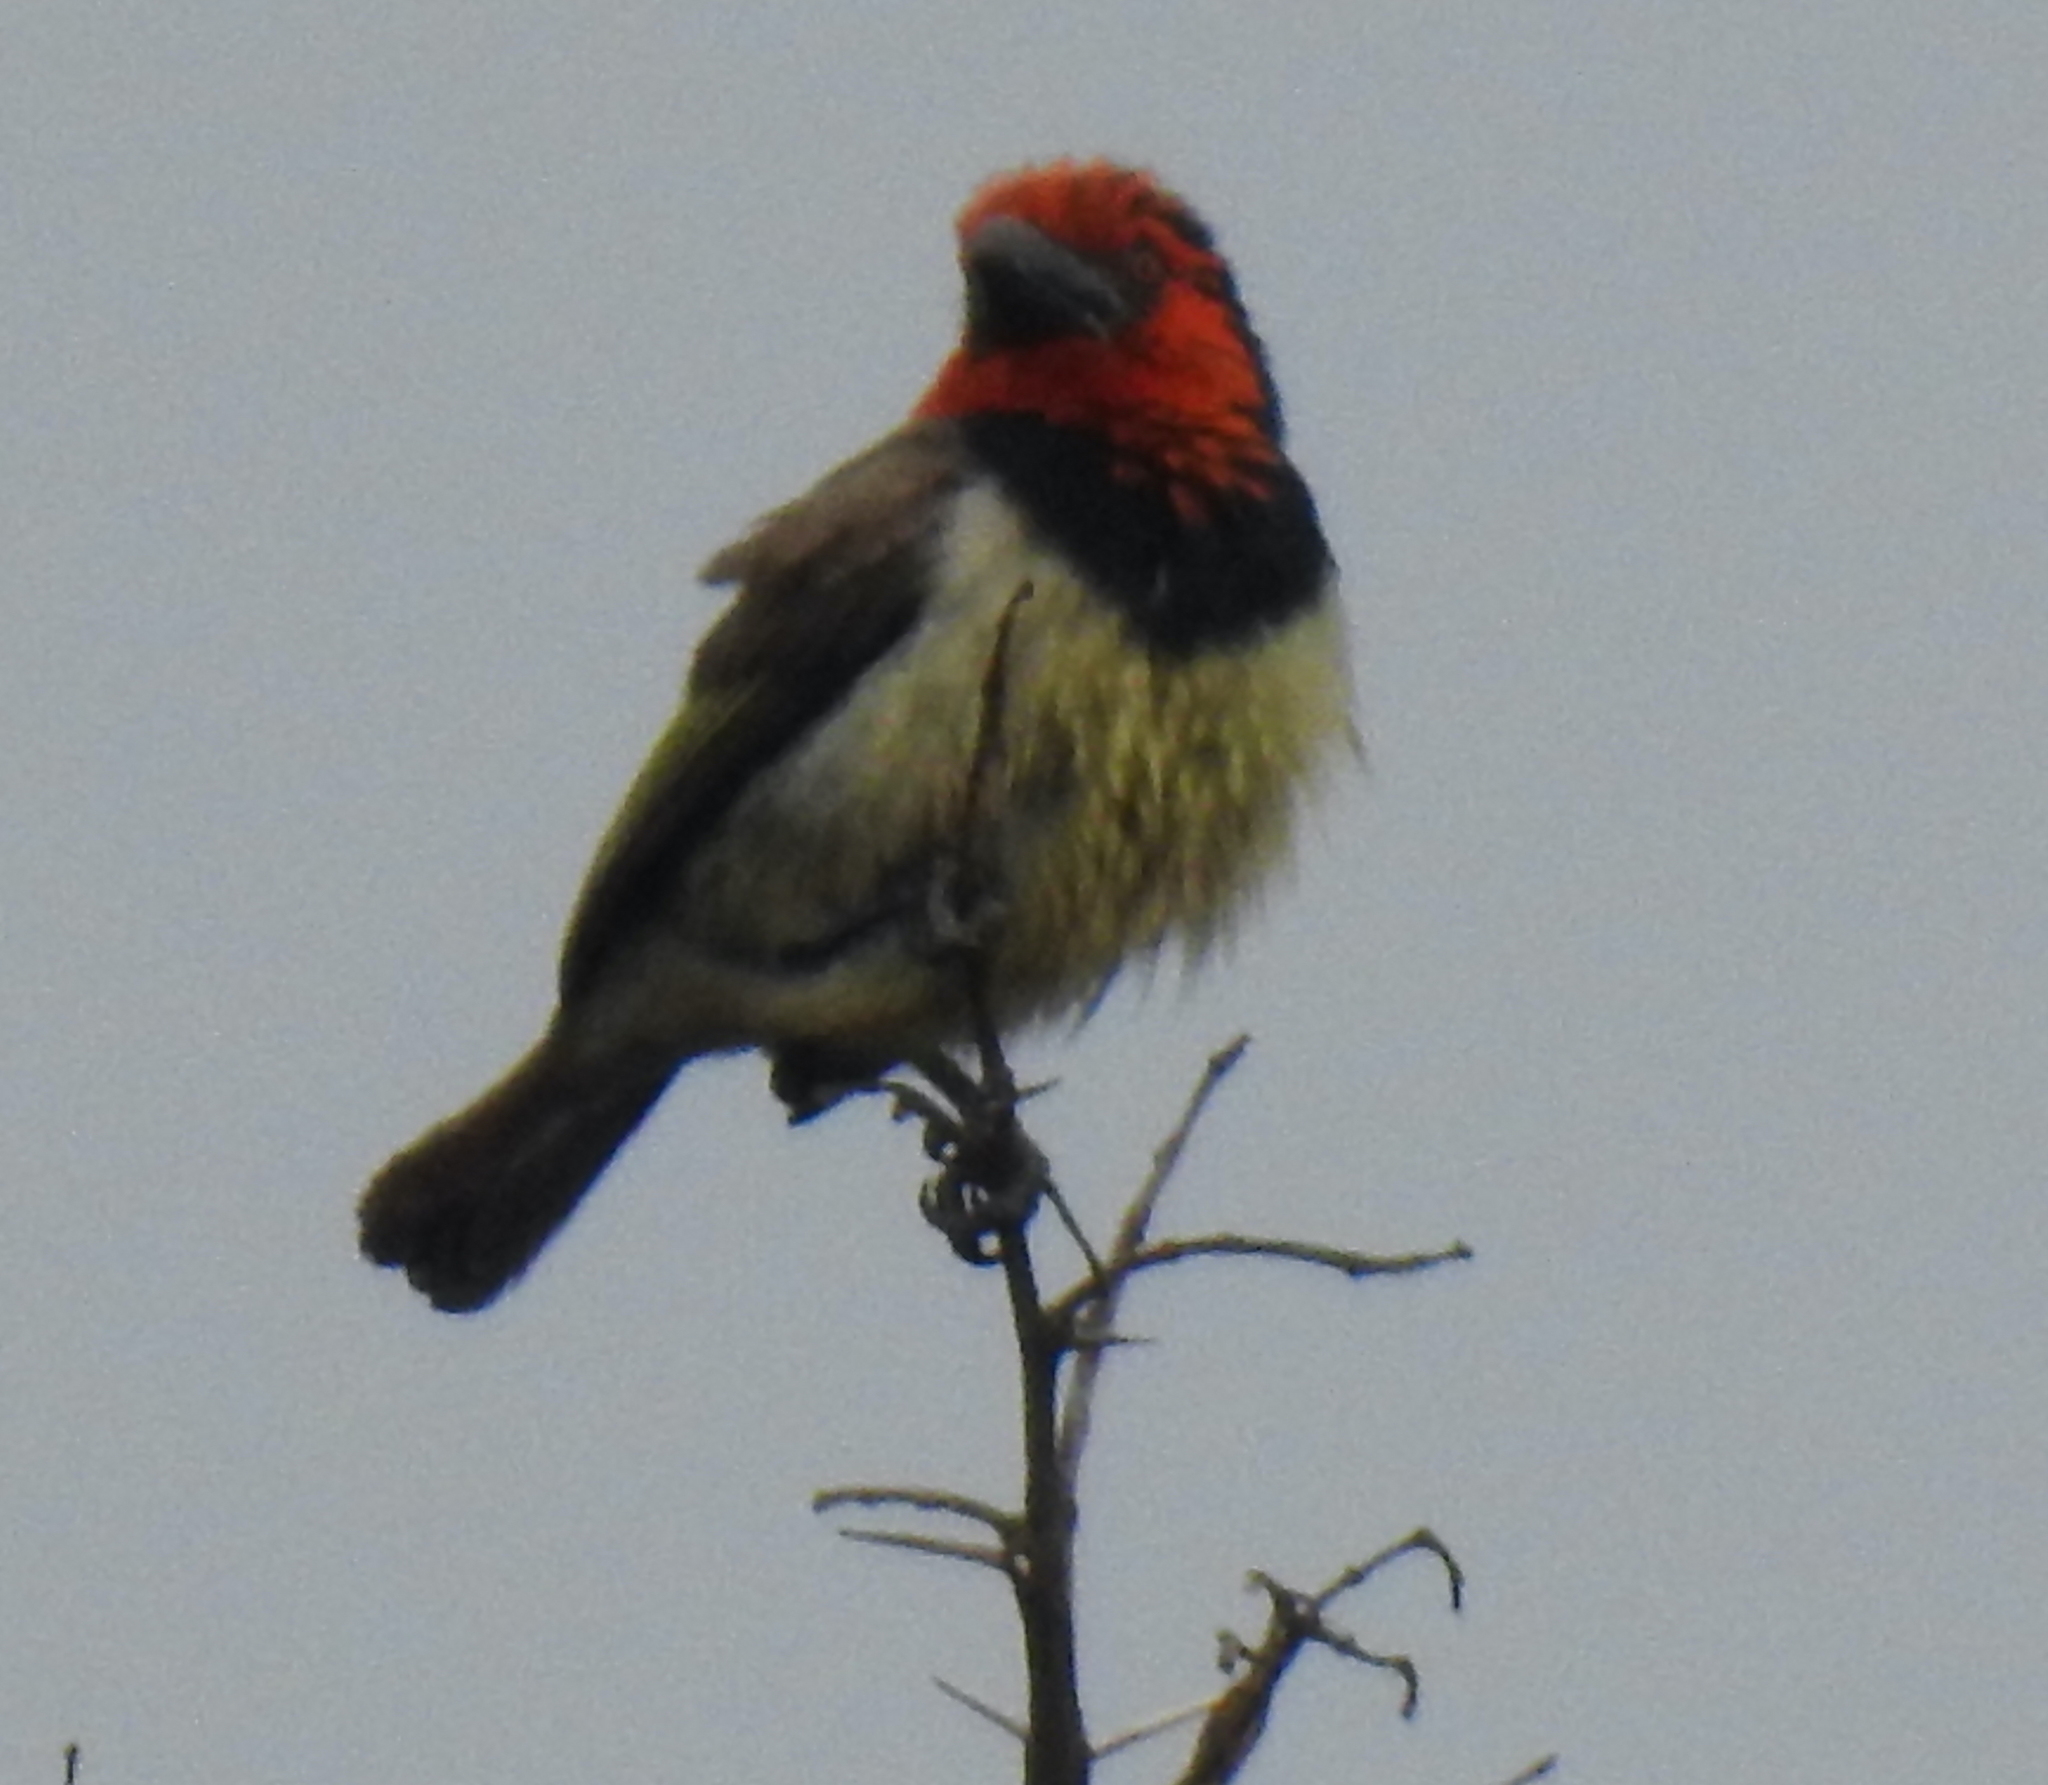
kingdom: Animalia
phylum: Chordata
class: Aves
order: Piciformes
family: Lybiidae
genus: Lybius
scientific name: Lybius torquatus
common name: Black-collared barbet
